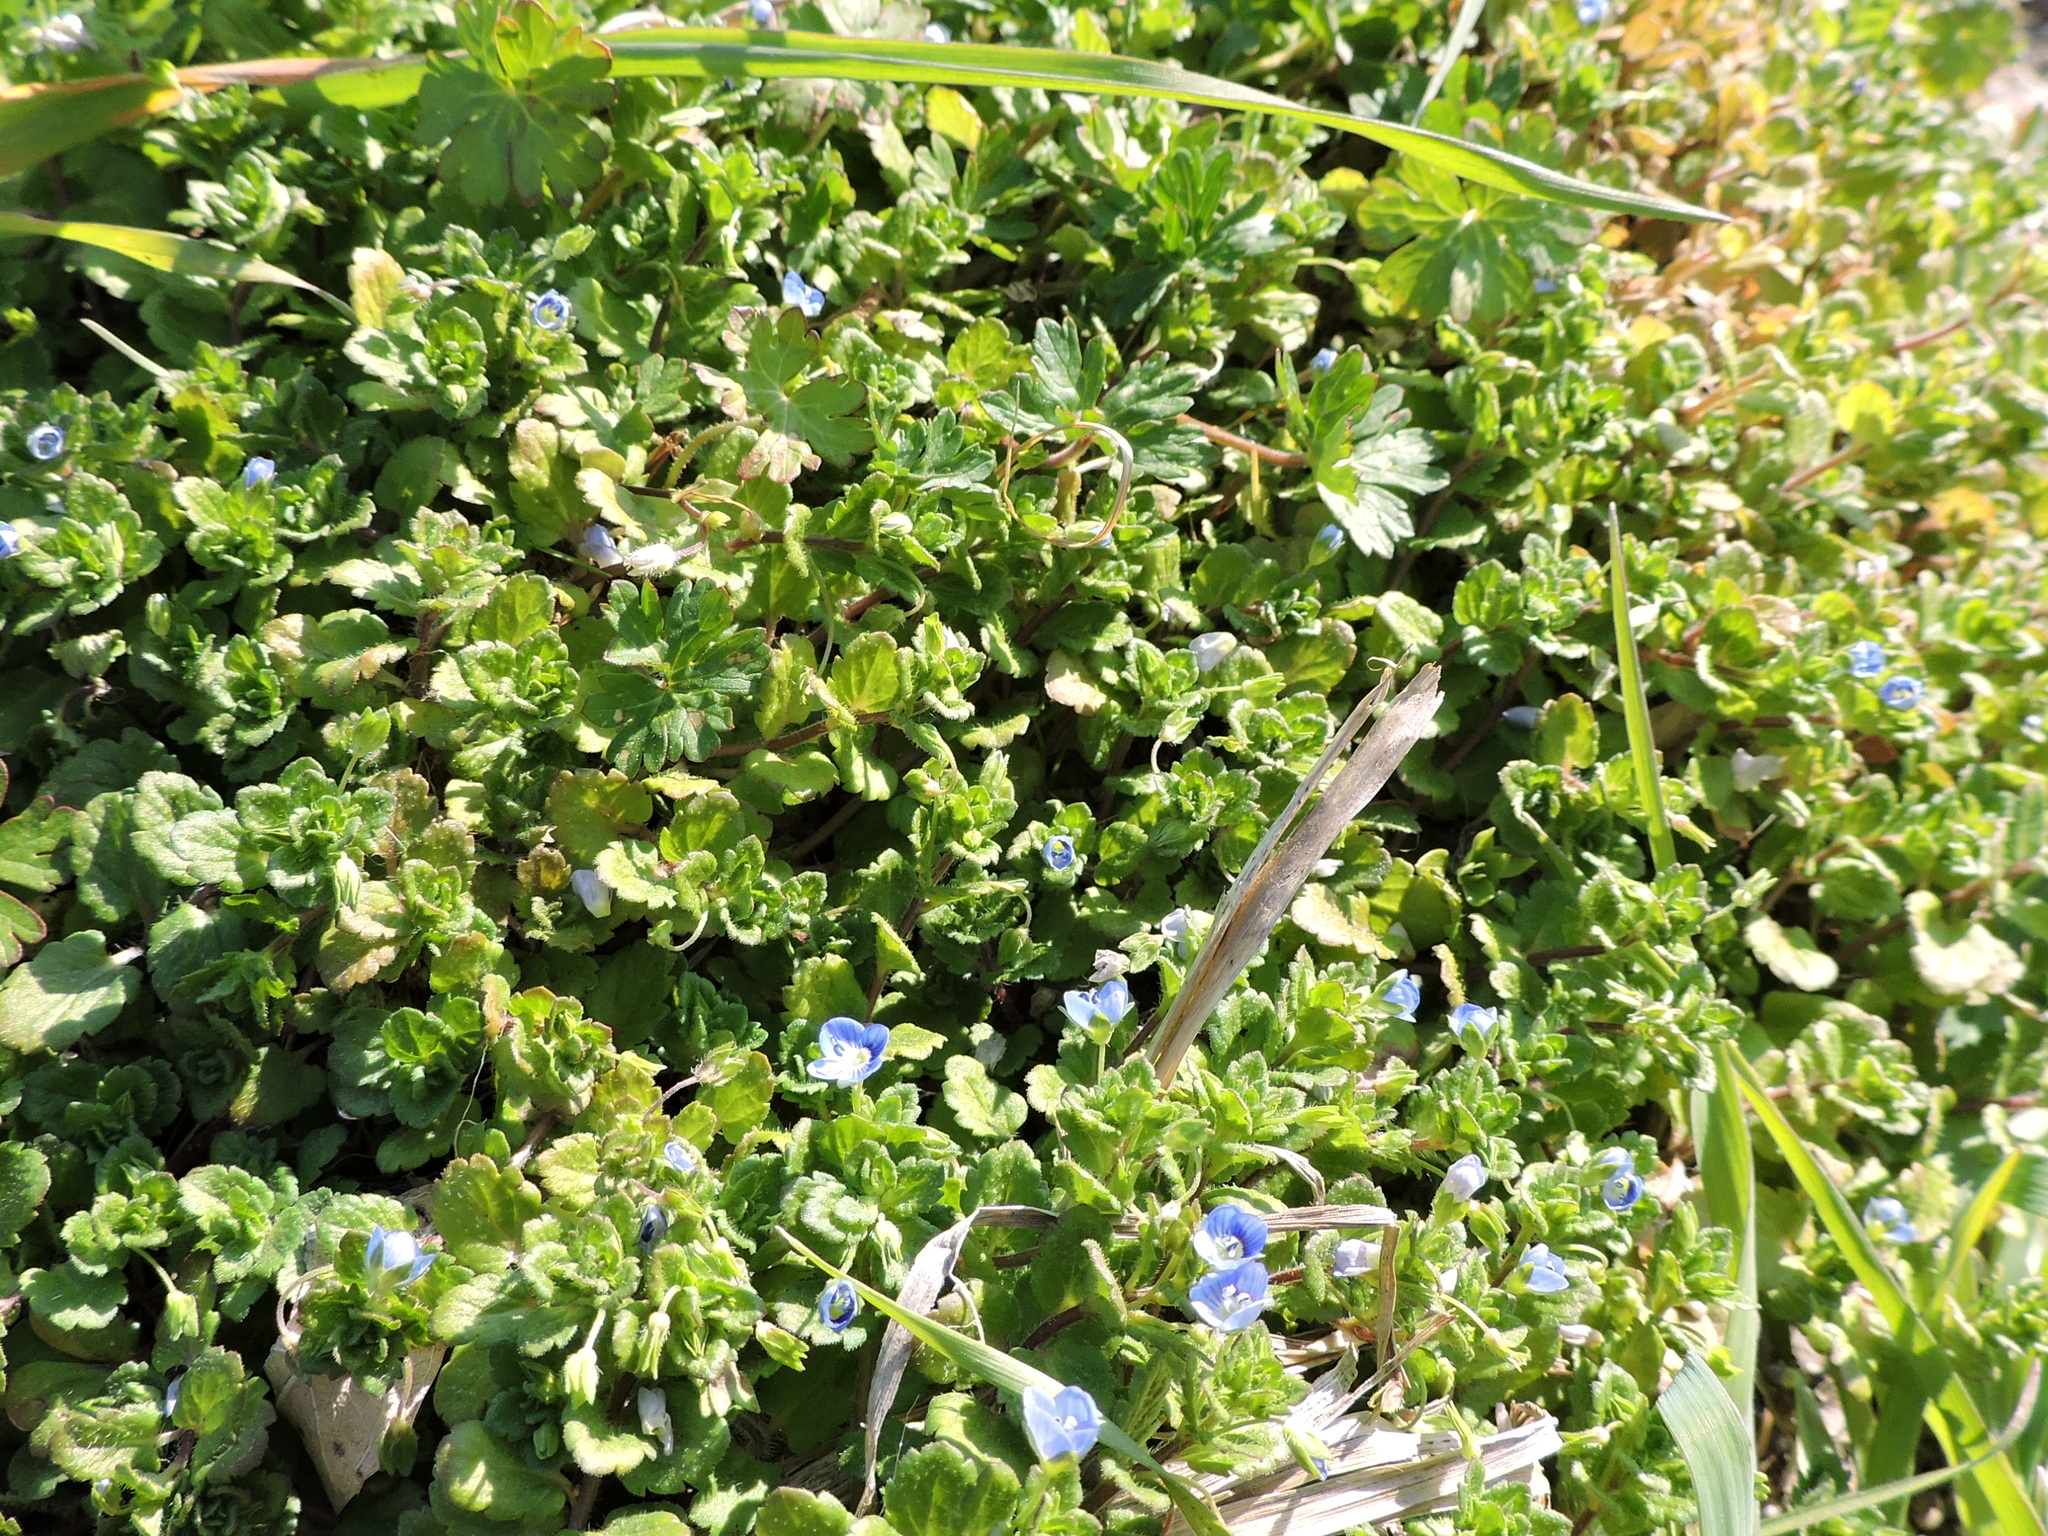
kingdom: Plantae
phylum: Tracheophyta
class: Magnoliopsida
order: Lamiales
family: Plantaginaceae
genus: Veronica
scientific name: Veronica persica
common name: Common field-speedwell
